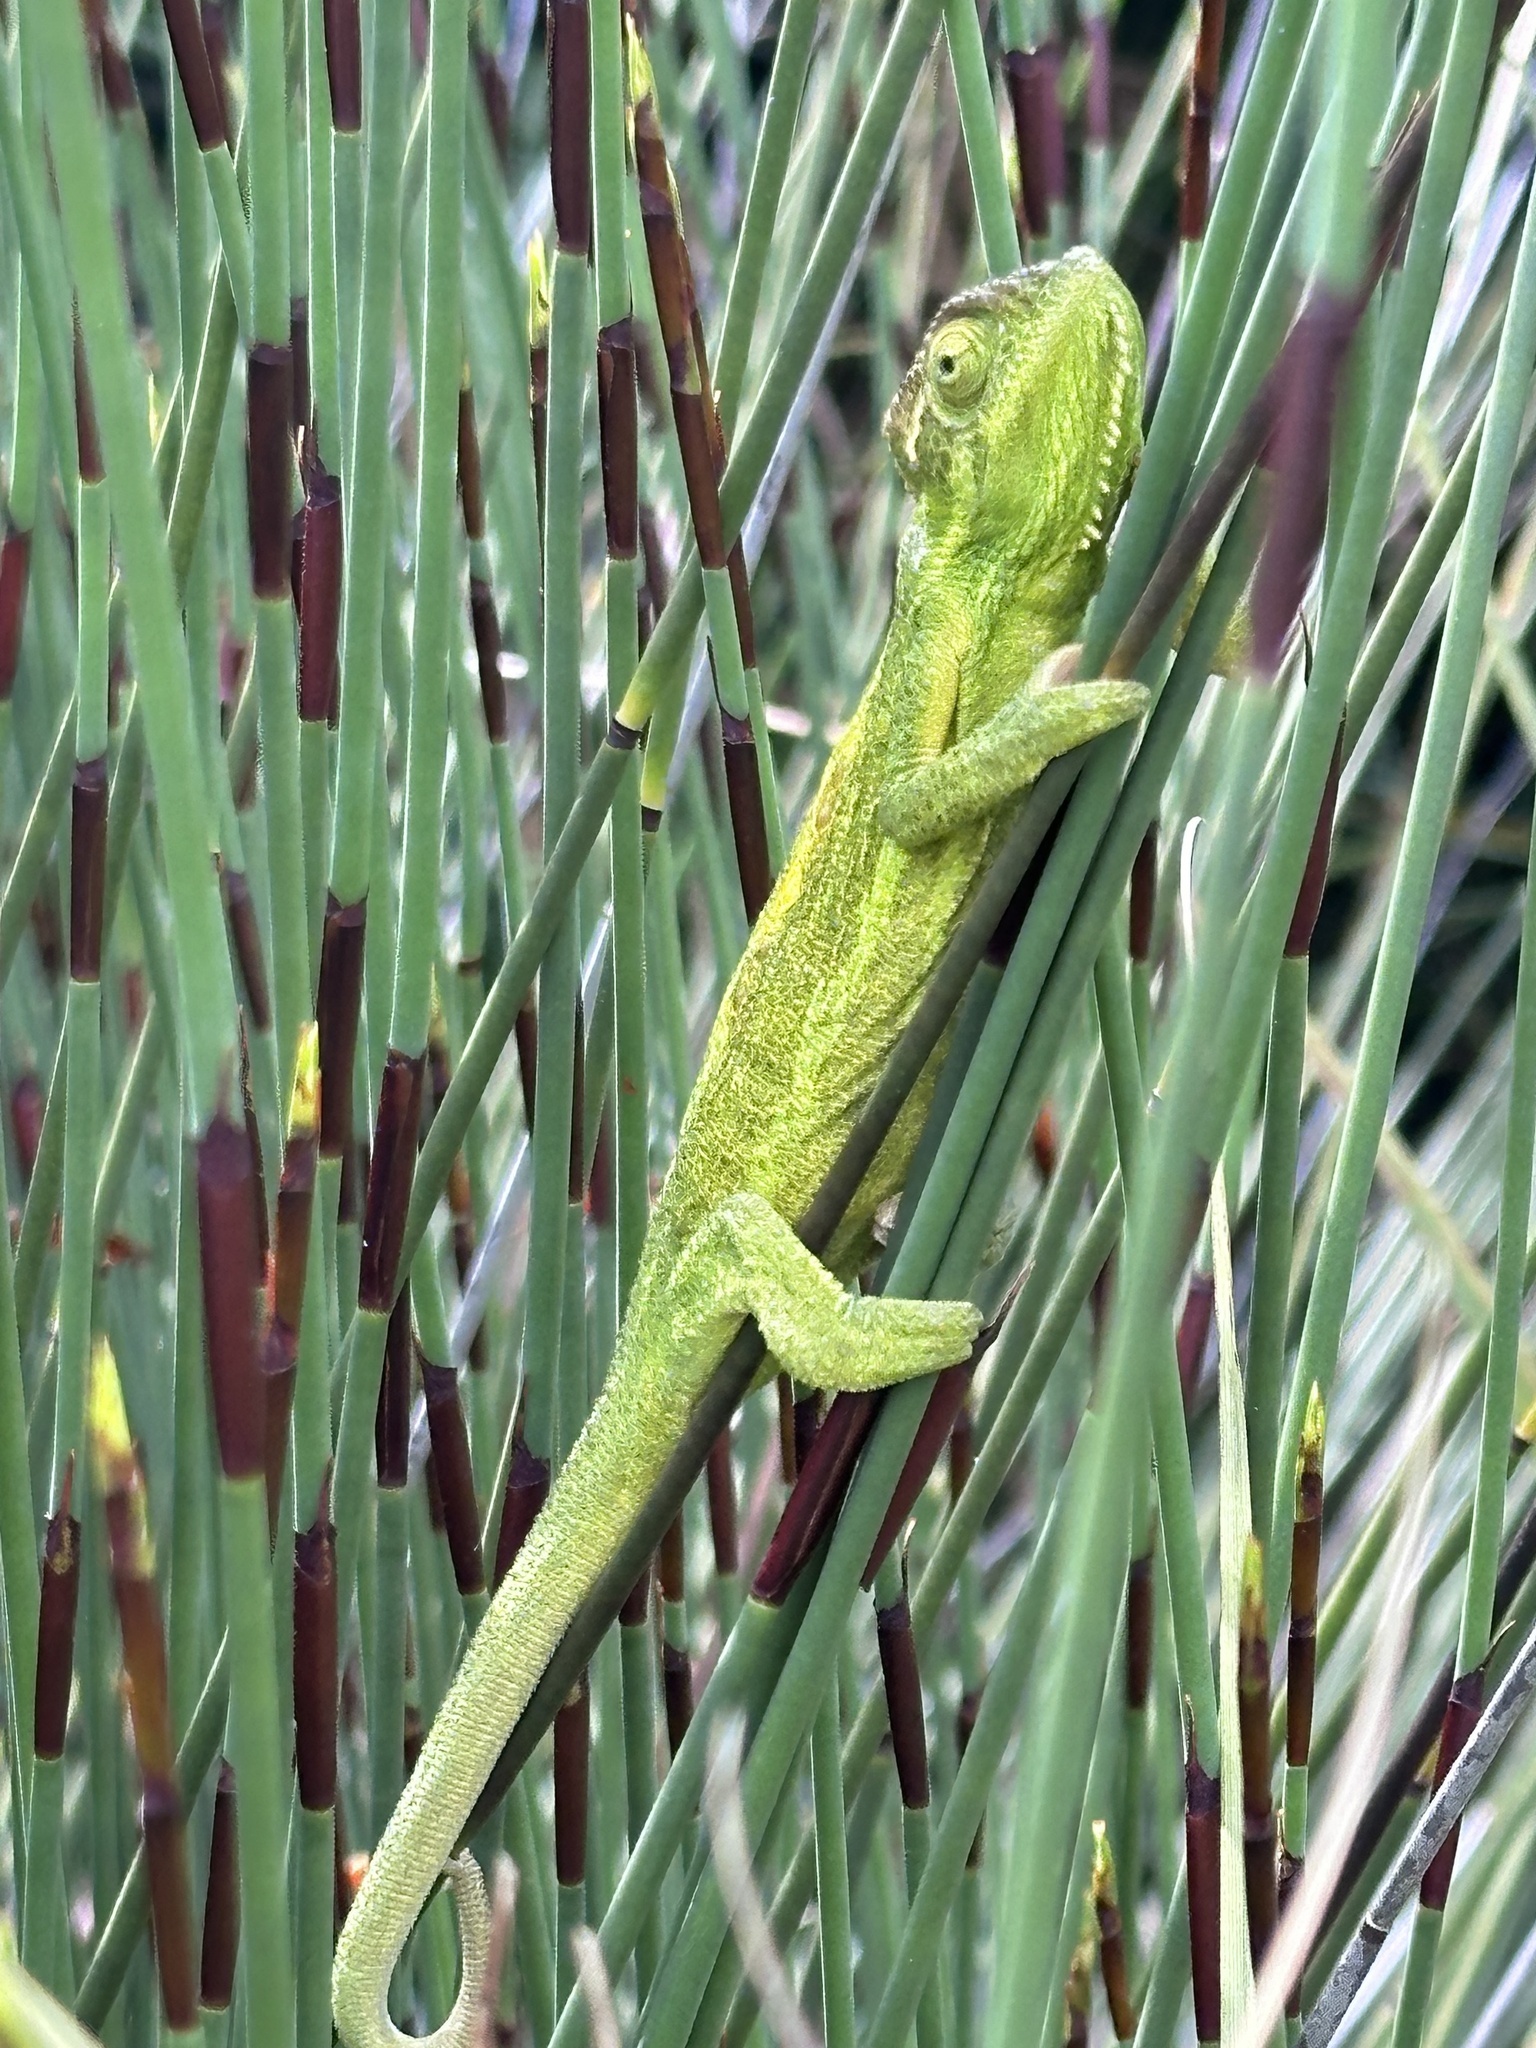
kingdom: Animalia
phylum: Chordata
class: Squamata
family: Chamaeleonidae
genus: Bradypodion
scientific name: Bradypodion pumilum
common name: Cape dwarf chameleon
